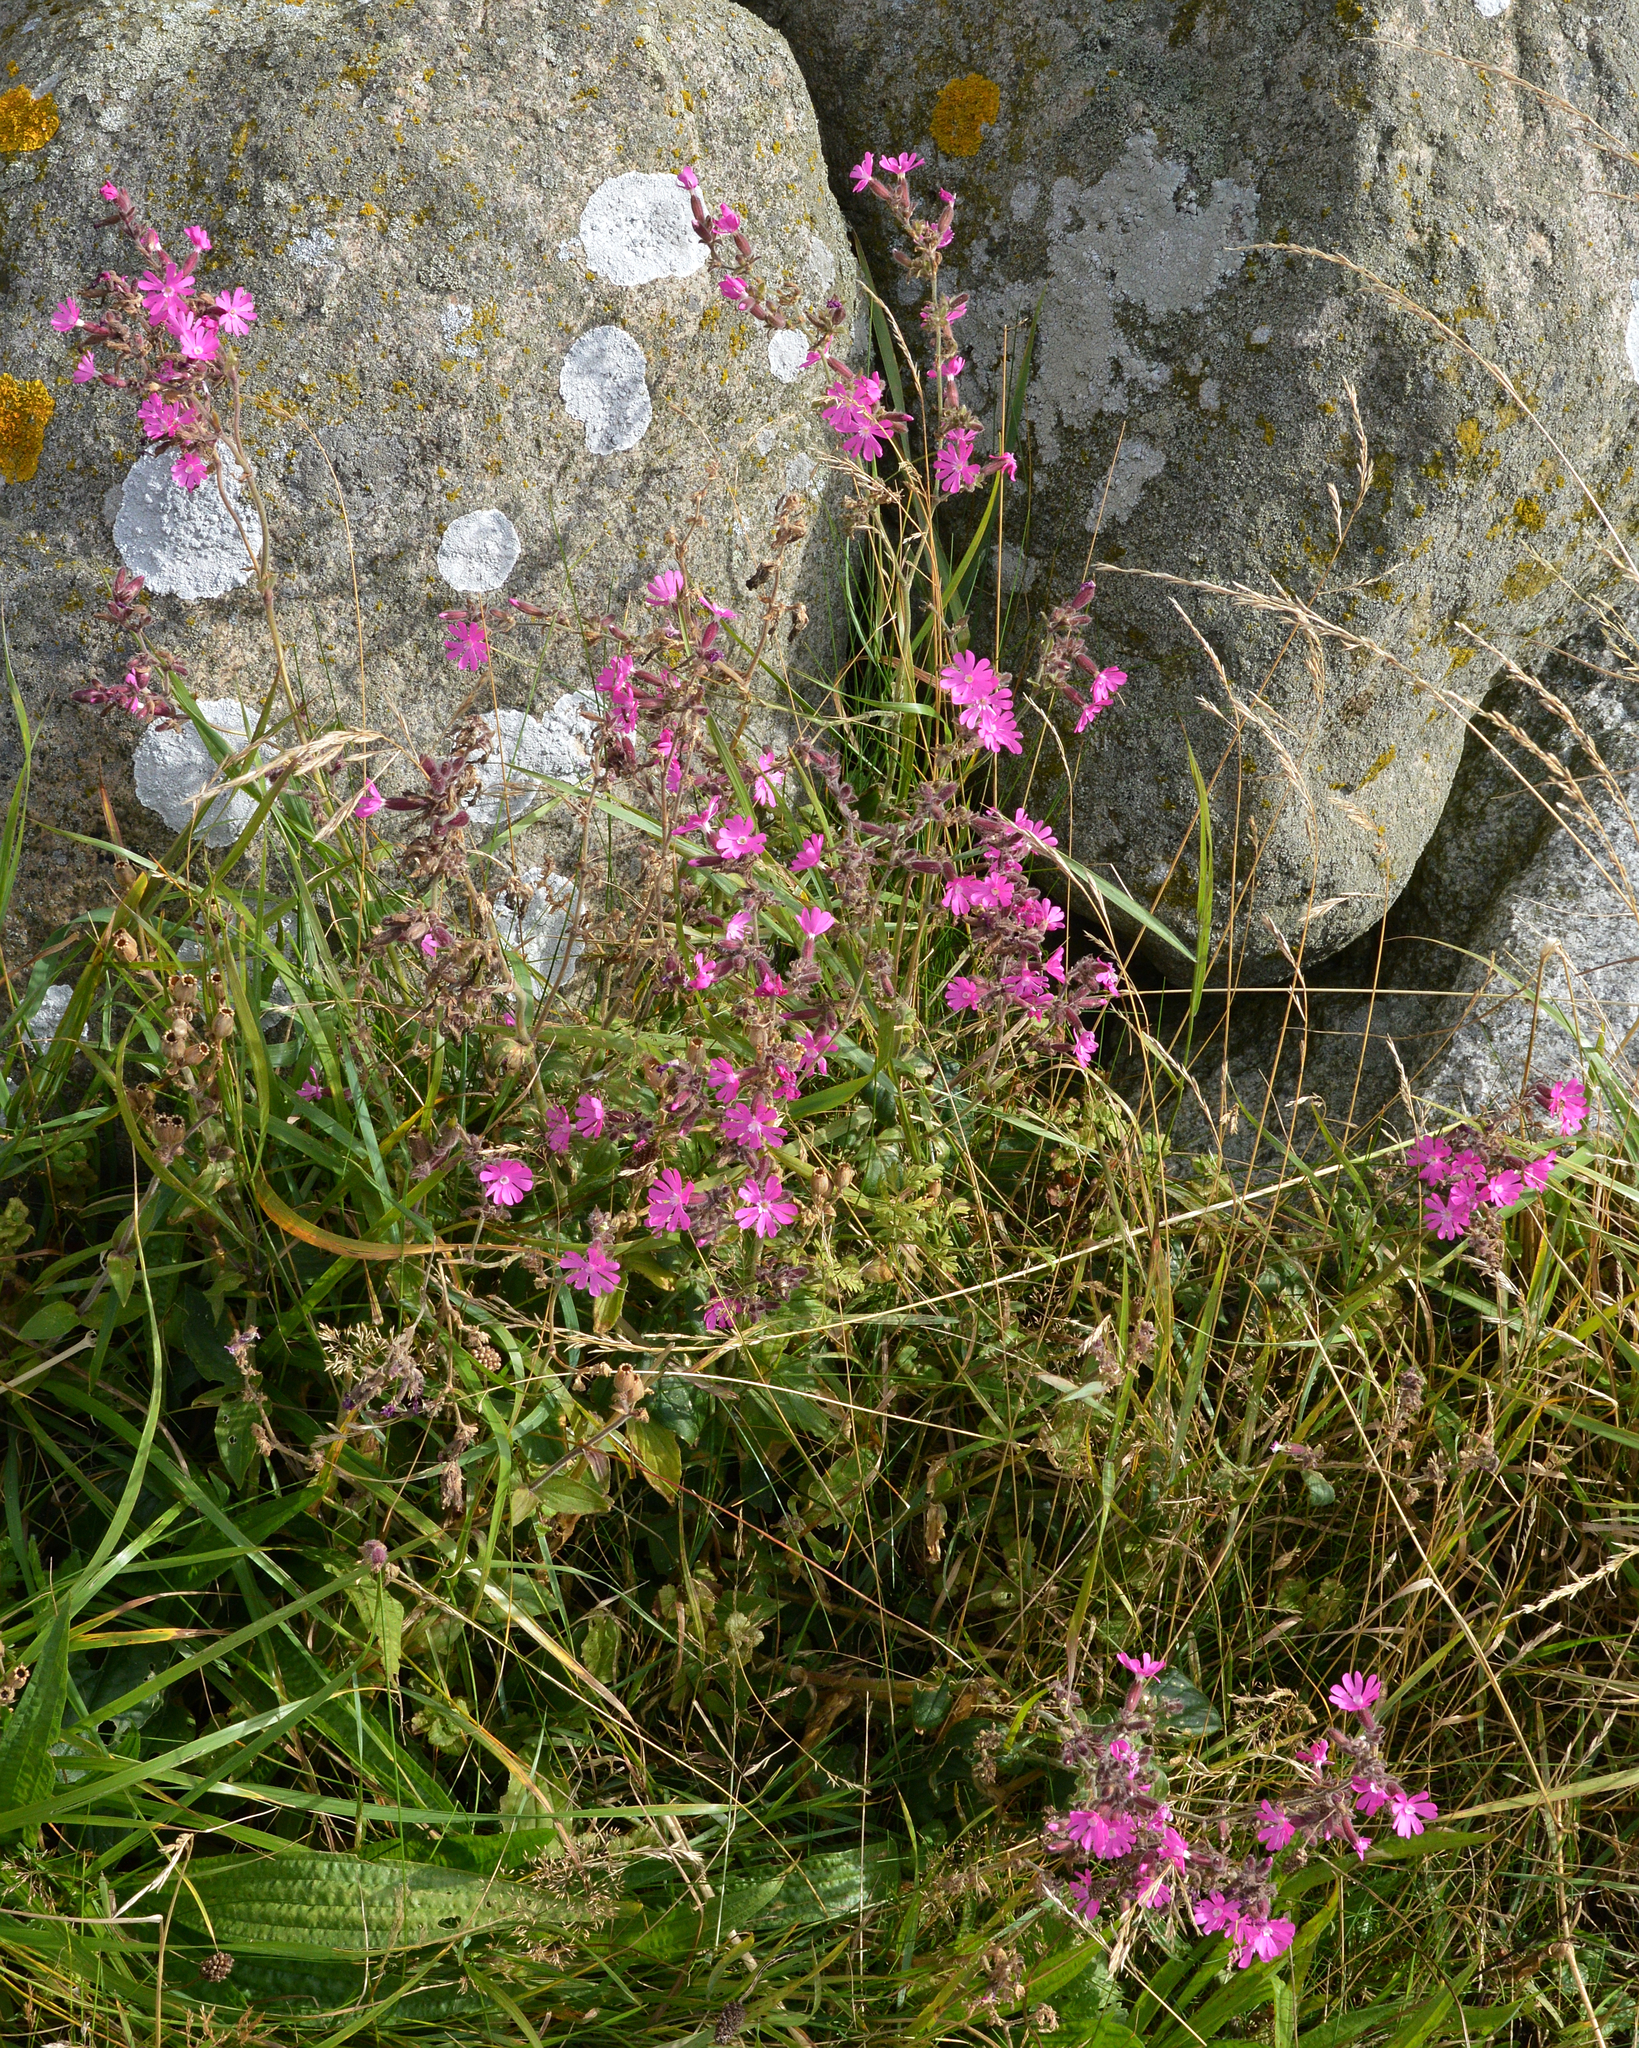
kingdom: Plantae
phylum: Tracheophyta
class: Magnoliopsida
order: Caryophyllales
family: Caryophyllaceae
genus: Silene
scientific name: Silene dioica
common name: Red campion
